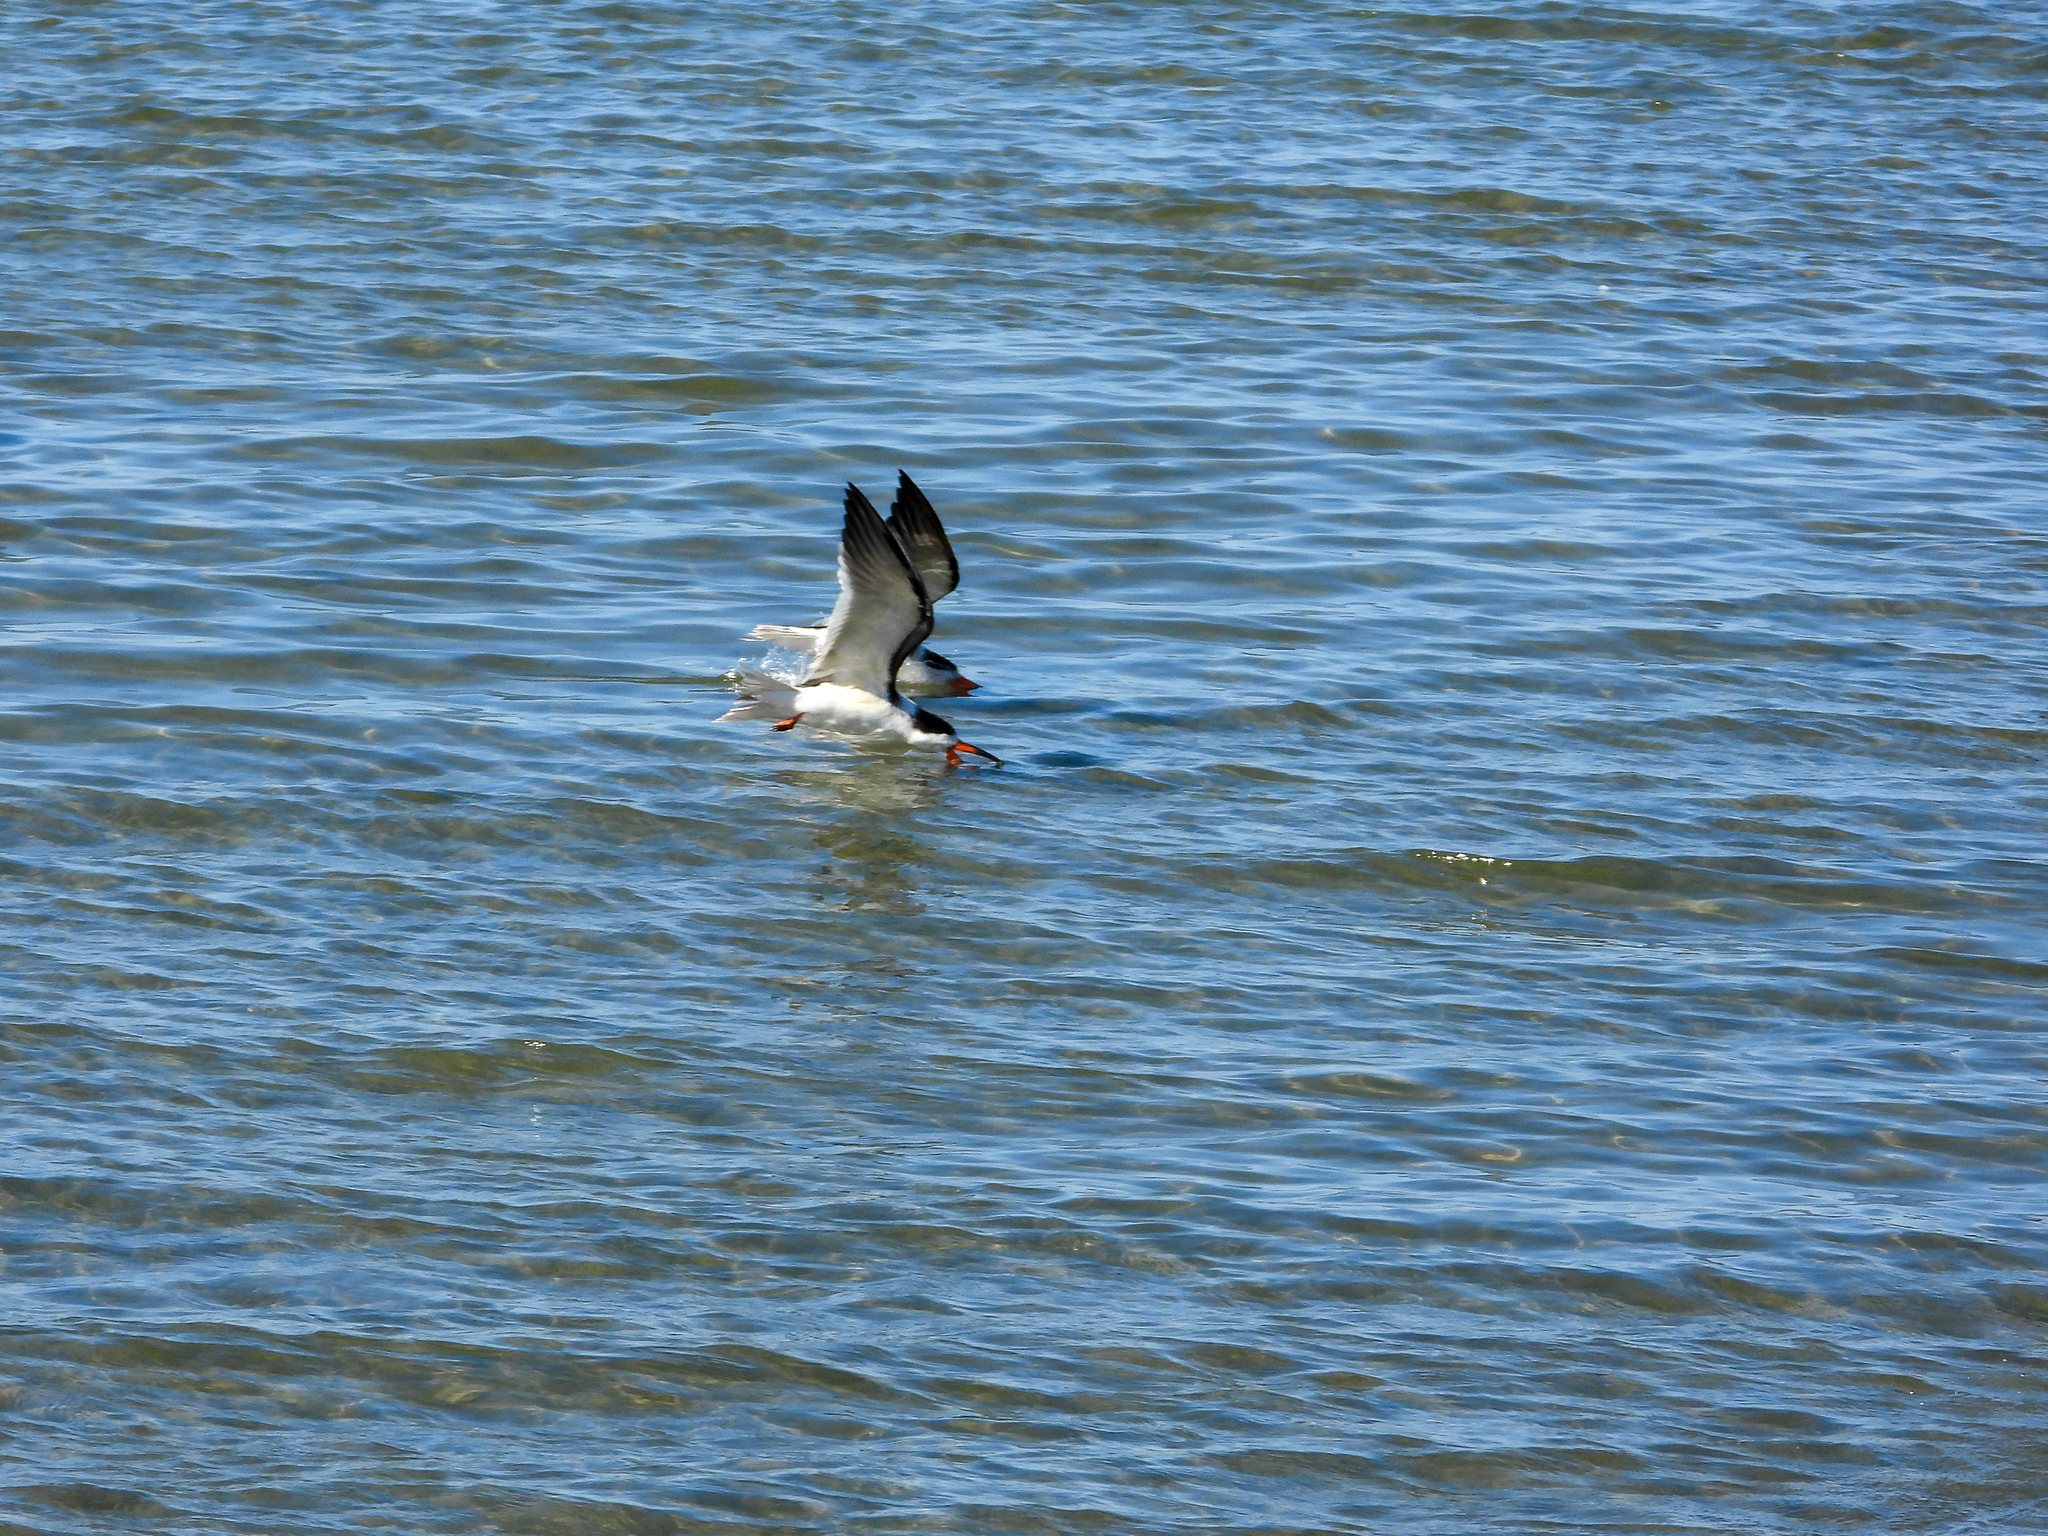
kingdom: Animalia
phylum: Chordata
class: Aves
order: Charadriiformes
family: Laridae
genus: Rynchops
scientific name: Rynchops niger
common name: Black skimmer
